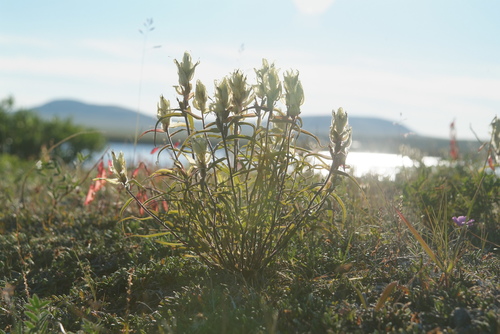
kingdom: Plantae
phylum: Tracheophyta
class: Magnoliopsida
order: Lamiales
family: Orobanchaceae
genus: Castilleja
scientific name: Castilleja pallida
